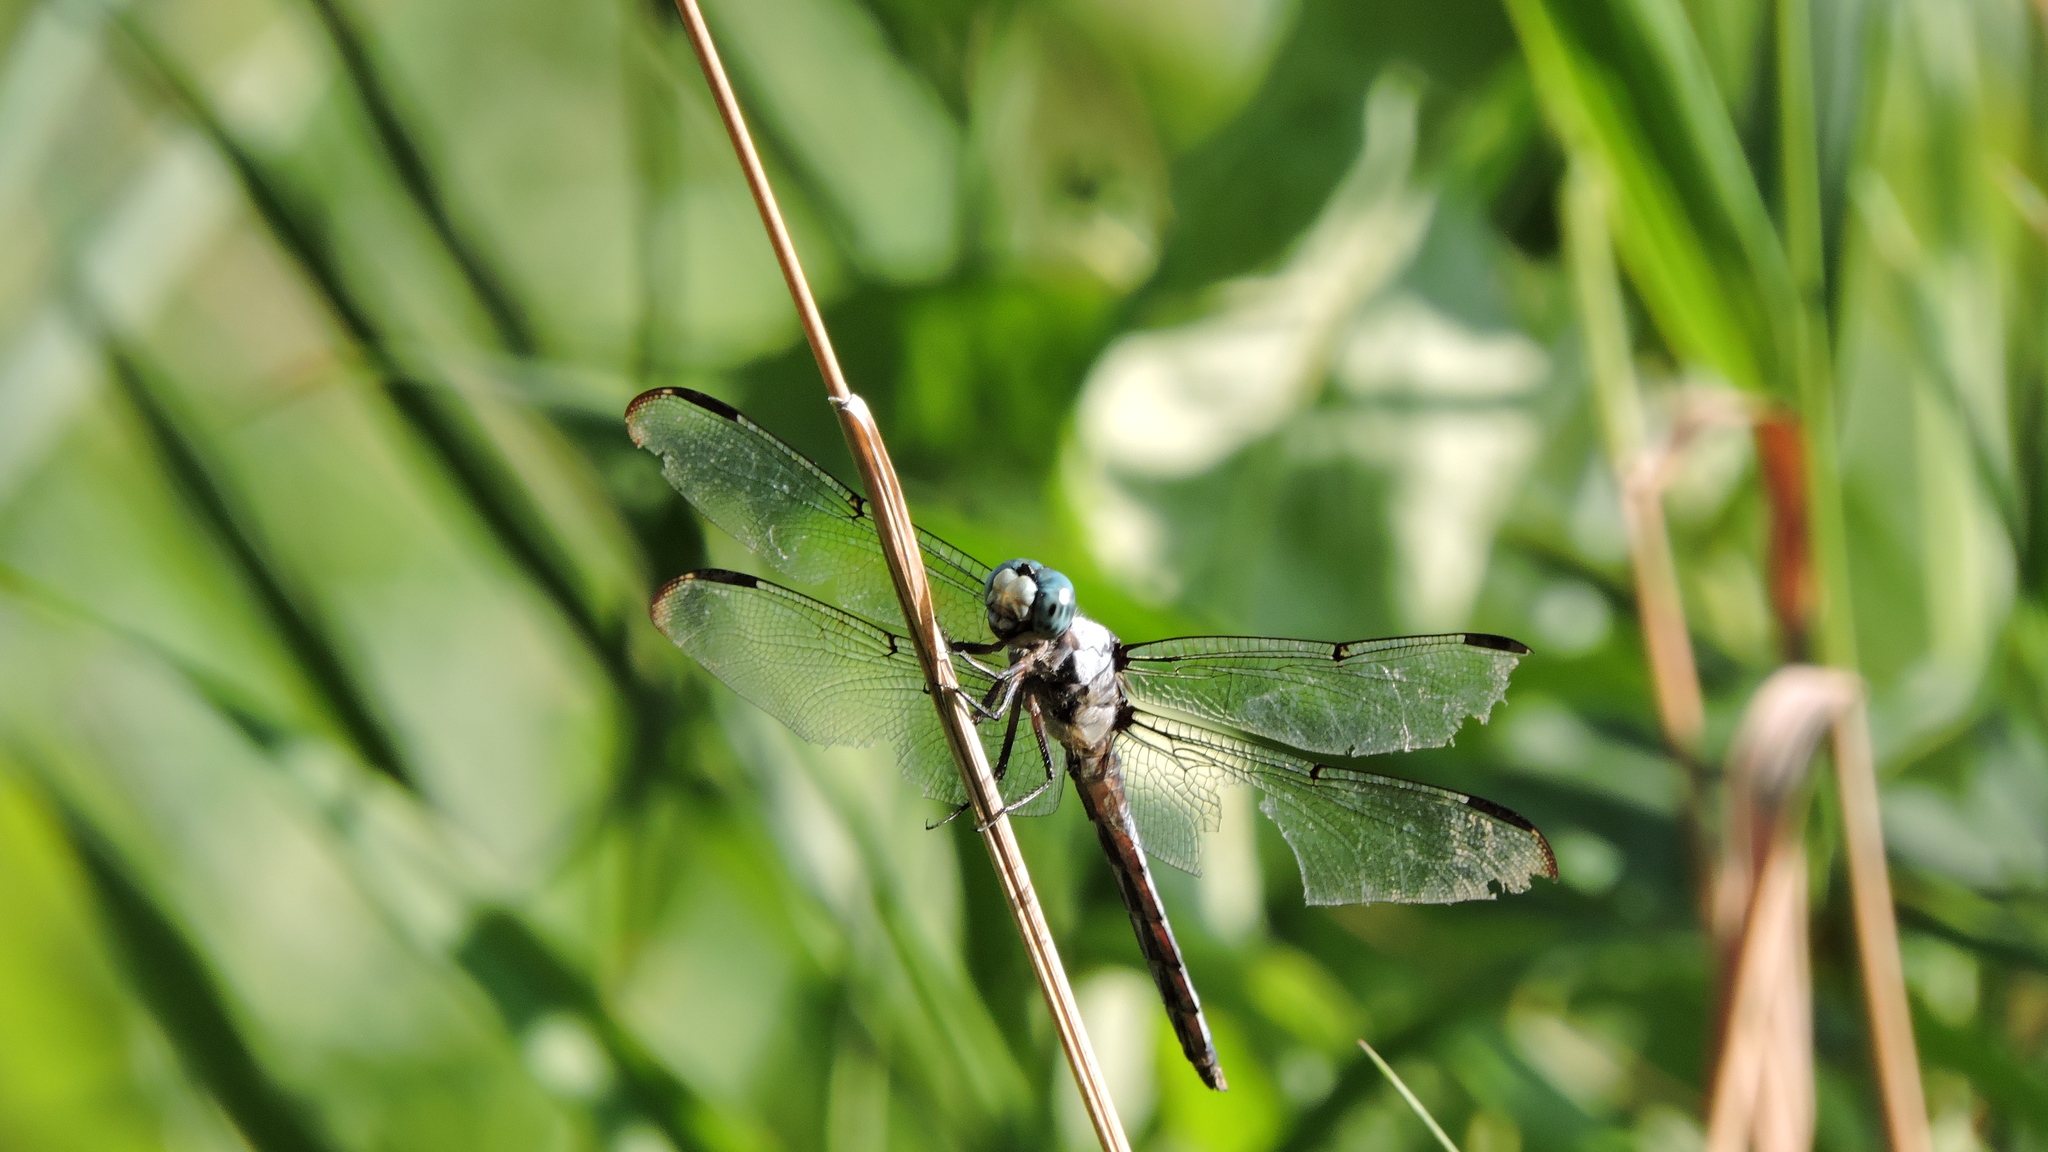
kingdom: Animalia
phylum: Arthropoda
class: Insecta
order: Odonata
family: Libellulidae
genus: Libellula
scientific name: Libellula vibrans
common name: Great blue skimmer
